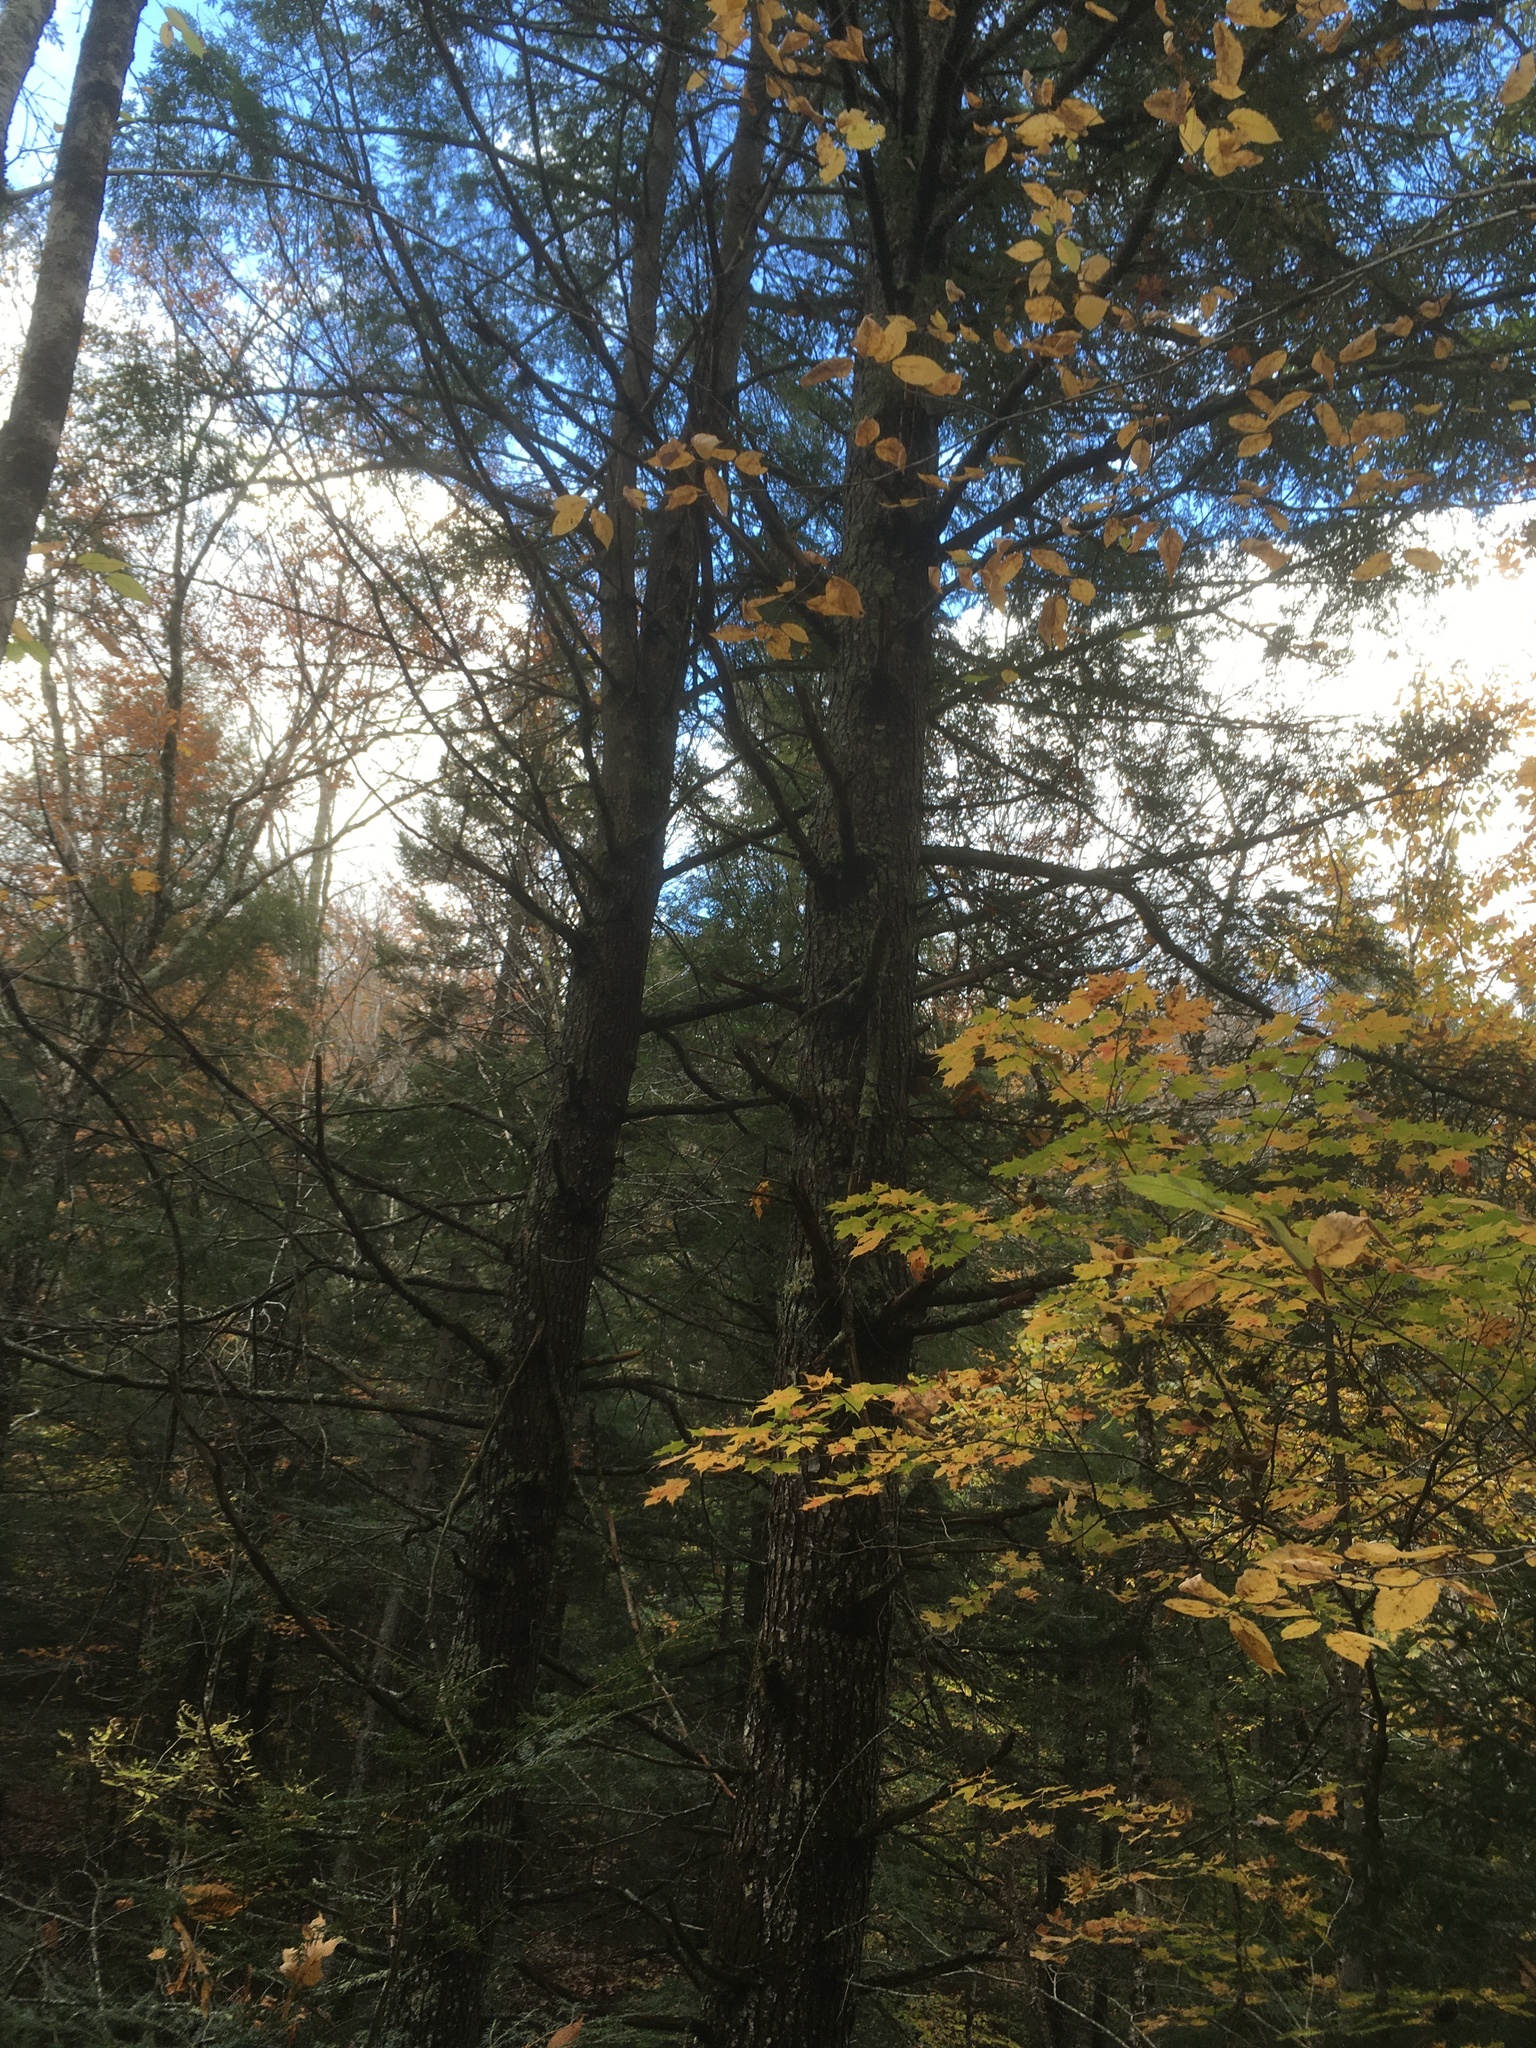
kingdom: Plantae
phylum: Tracheophyta
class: Pinopsida
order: Pinales
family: Pinaceae
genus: Tsuga
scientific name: Tsuga canadensis
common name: Eastern hemlock
